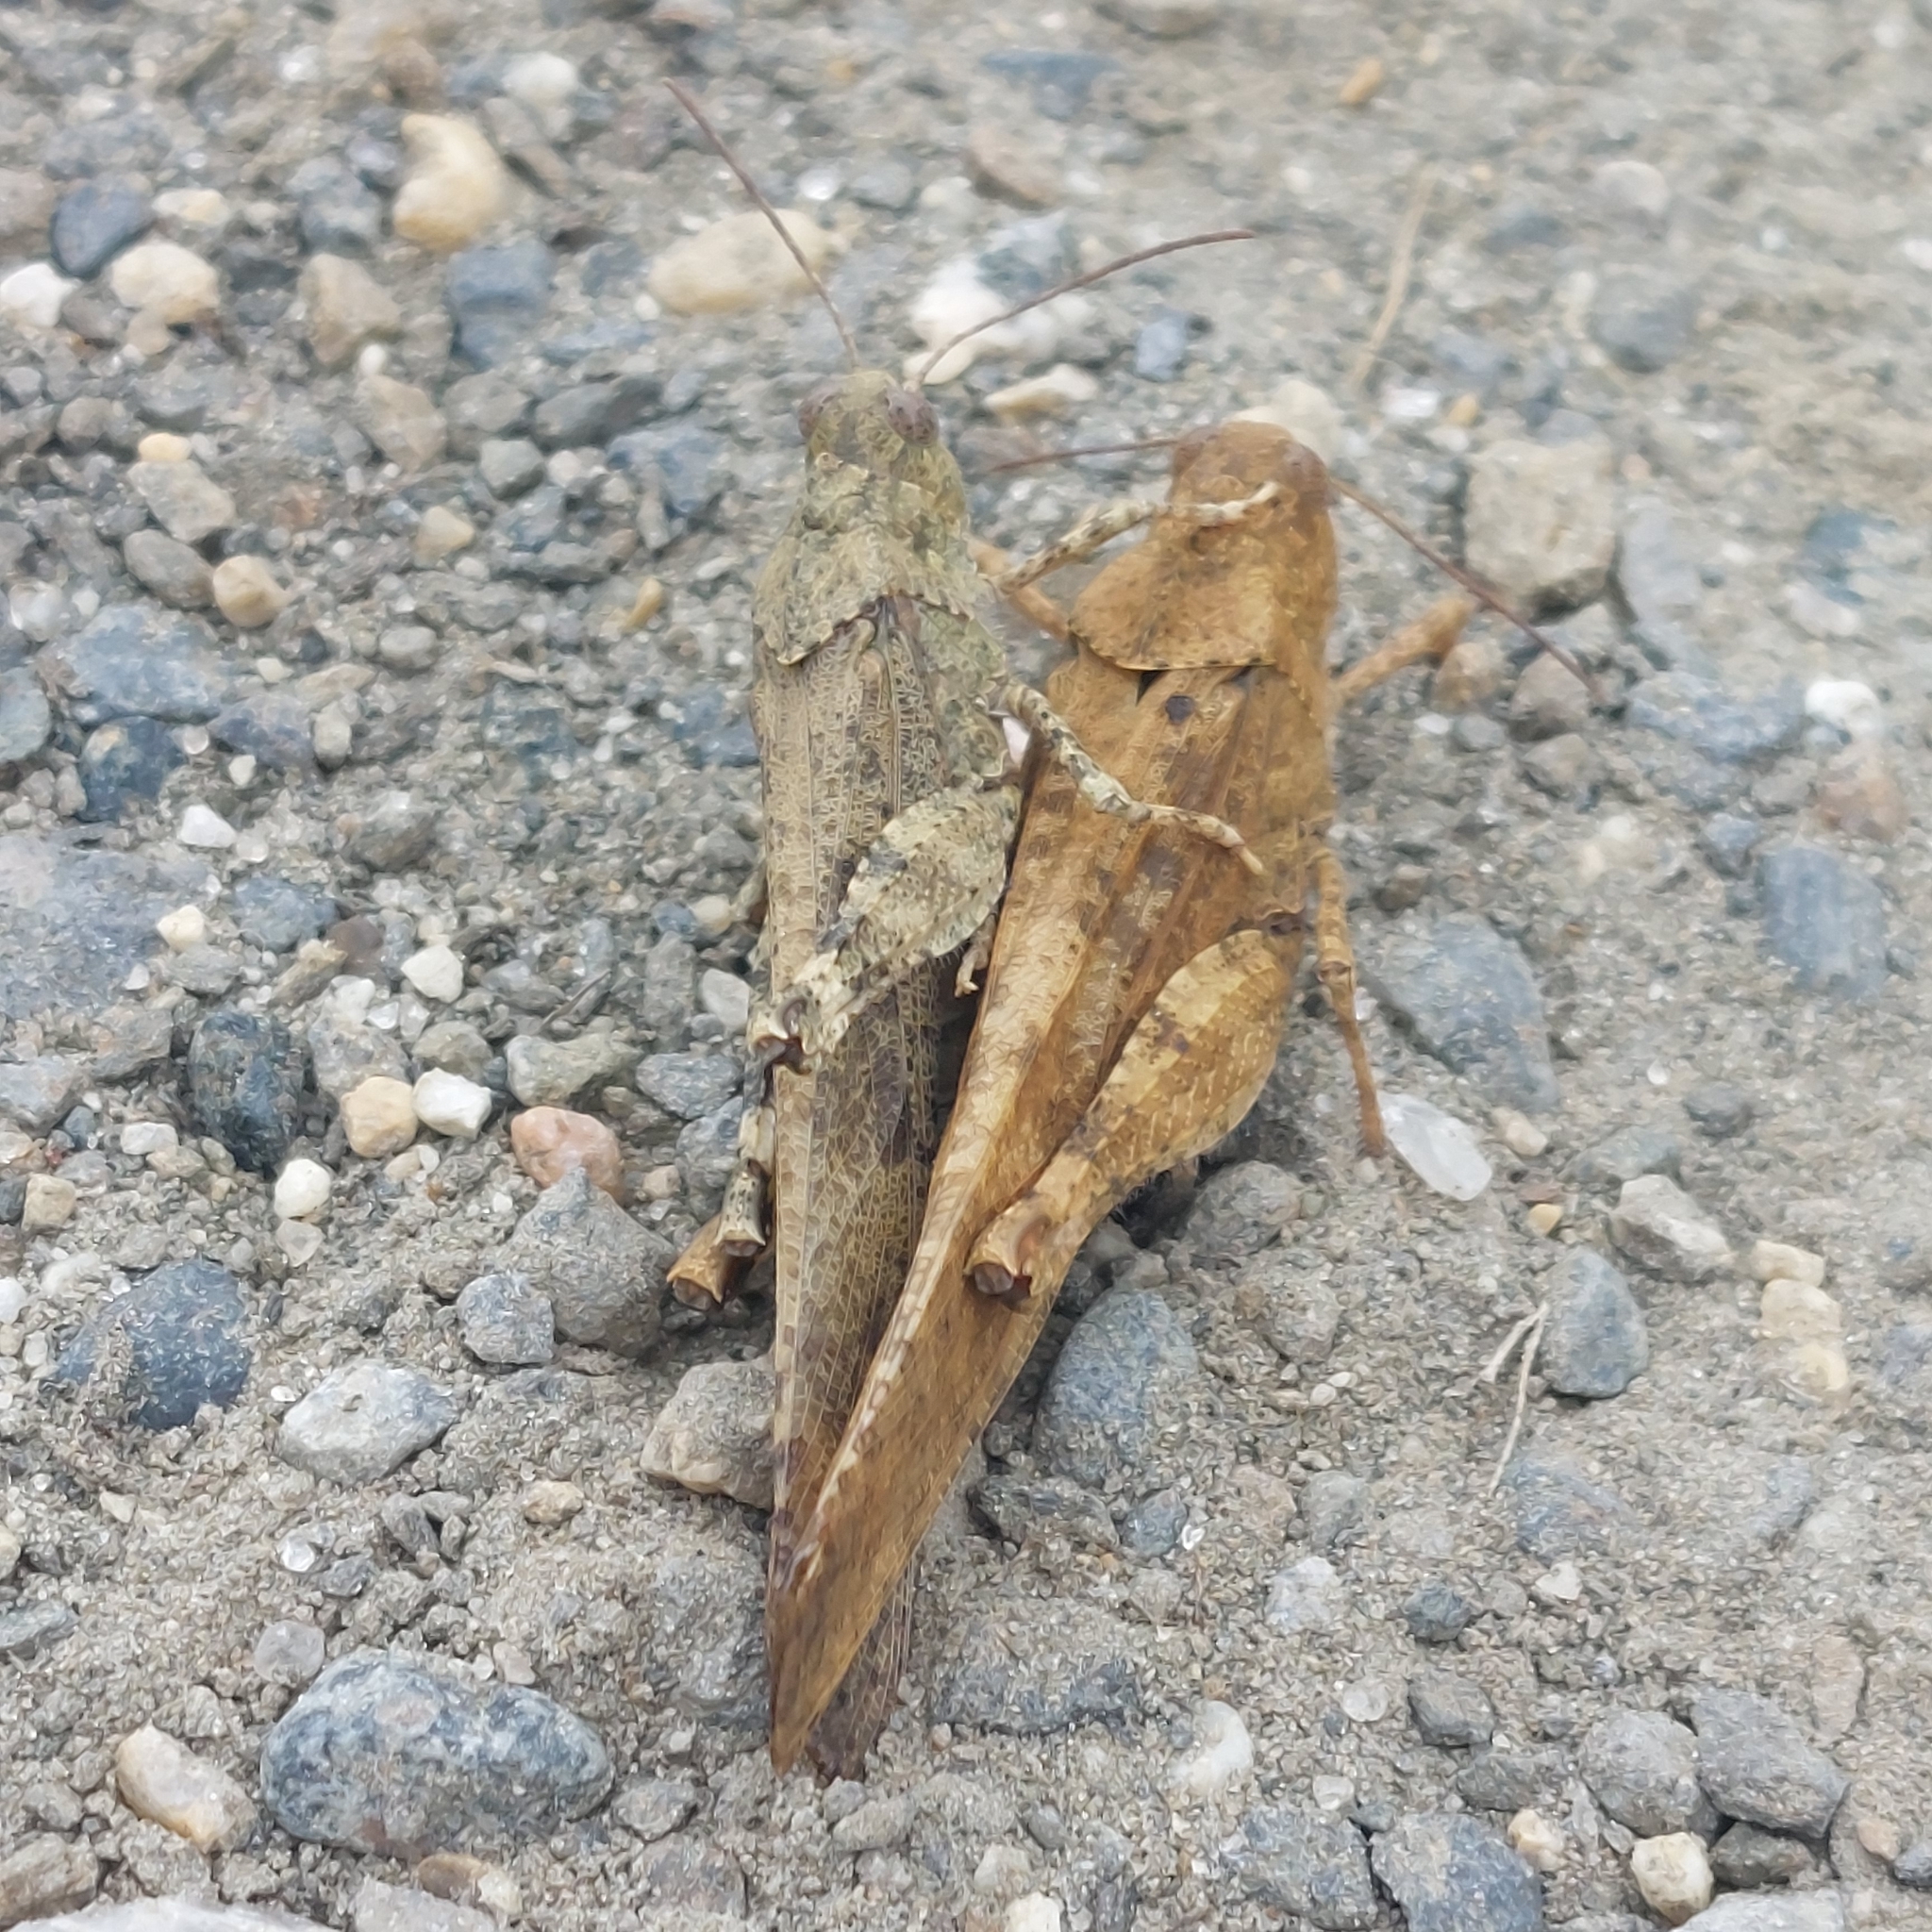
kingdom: Animalia
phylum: Arthropoda
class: Insecta
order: Orthoptera
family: Acrididae
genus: Dissosteira
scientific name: Dissosteira carolina
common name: Carolina grasshopper
